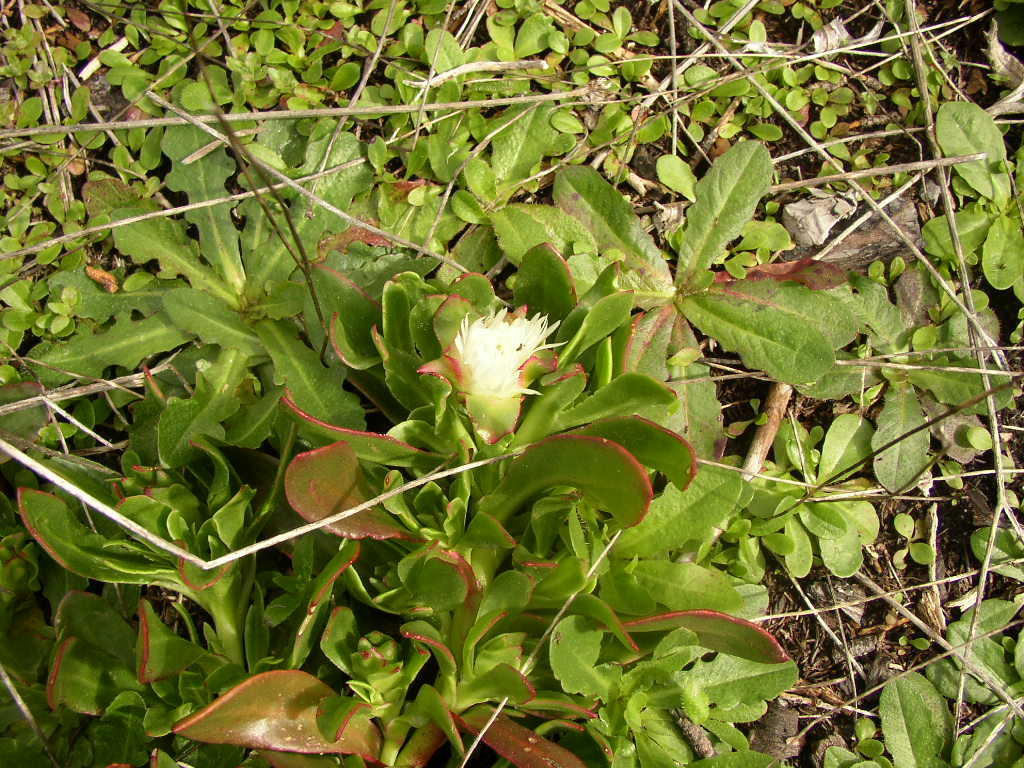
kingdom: Plantae
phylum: Tracheophyta
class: Magnoliopsida
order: Caryophyllales
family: Aizoaceae
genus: Skiatophytum
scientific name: Skiatophytum tripolium
